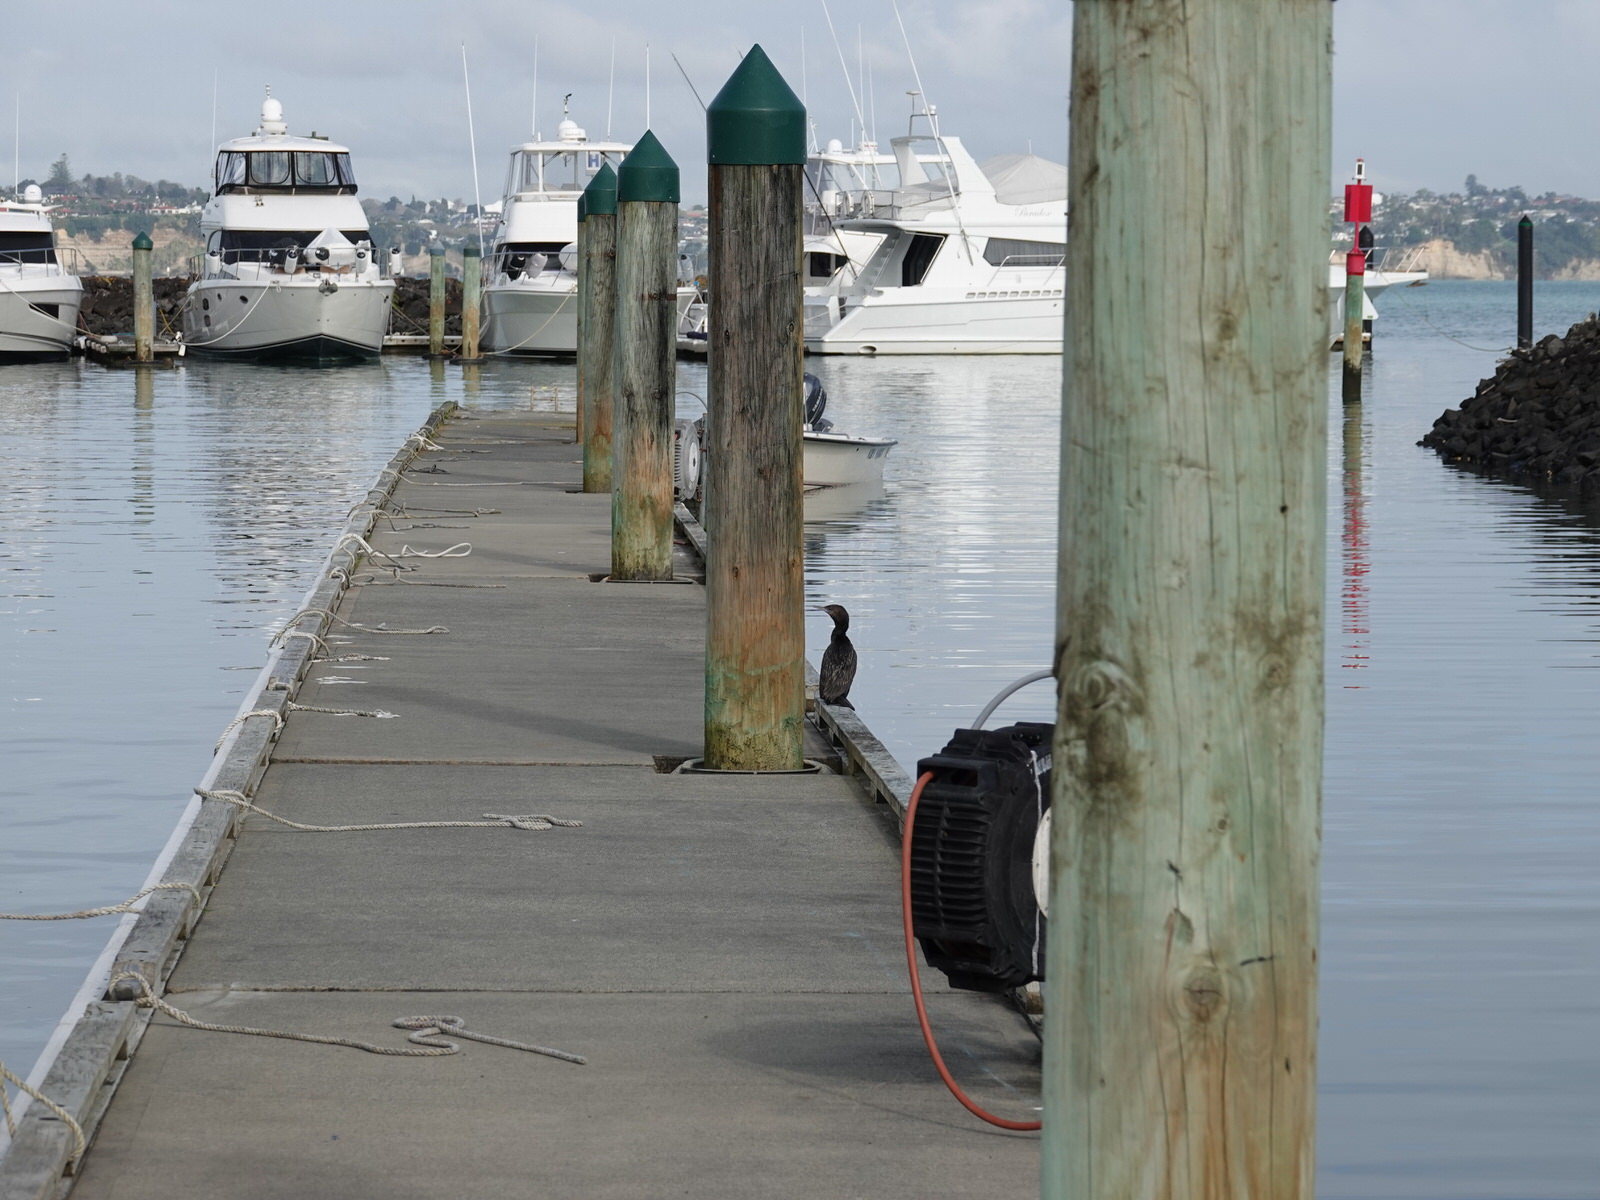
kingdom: Animalia
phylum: Chordata
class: Aves
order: Suliformes
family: Phalacrocoracidae
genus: Phalacrocorax
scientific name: Phalacrocorax sulcirostris
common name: Little black cormorant
